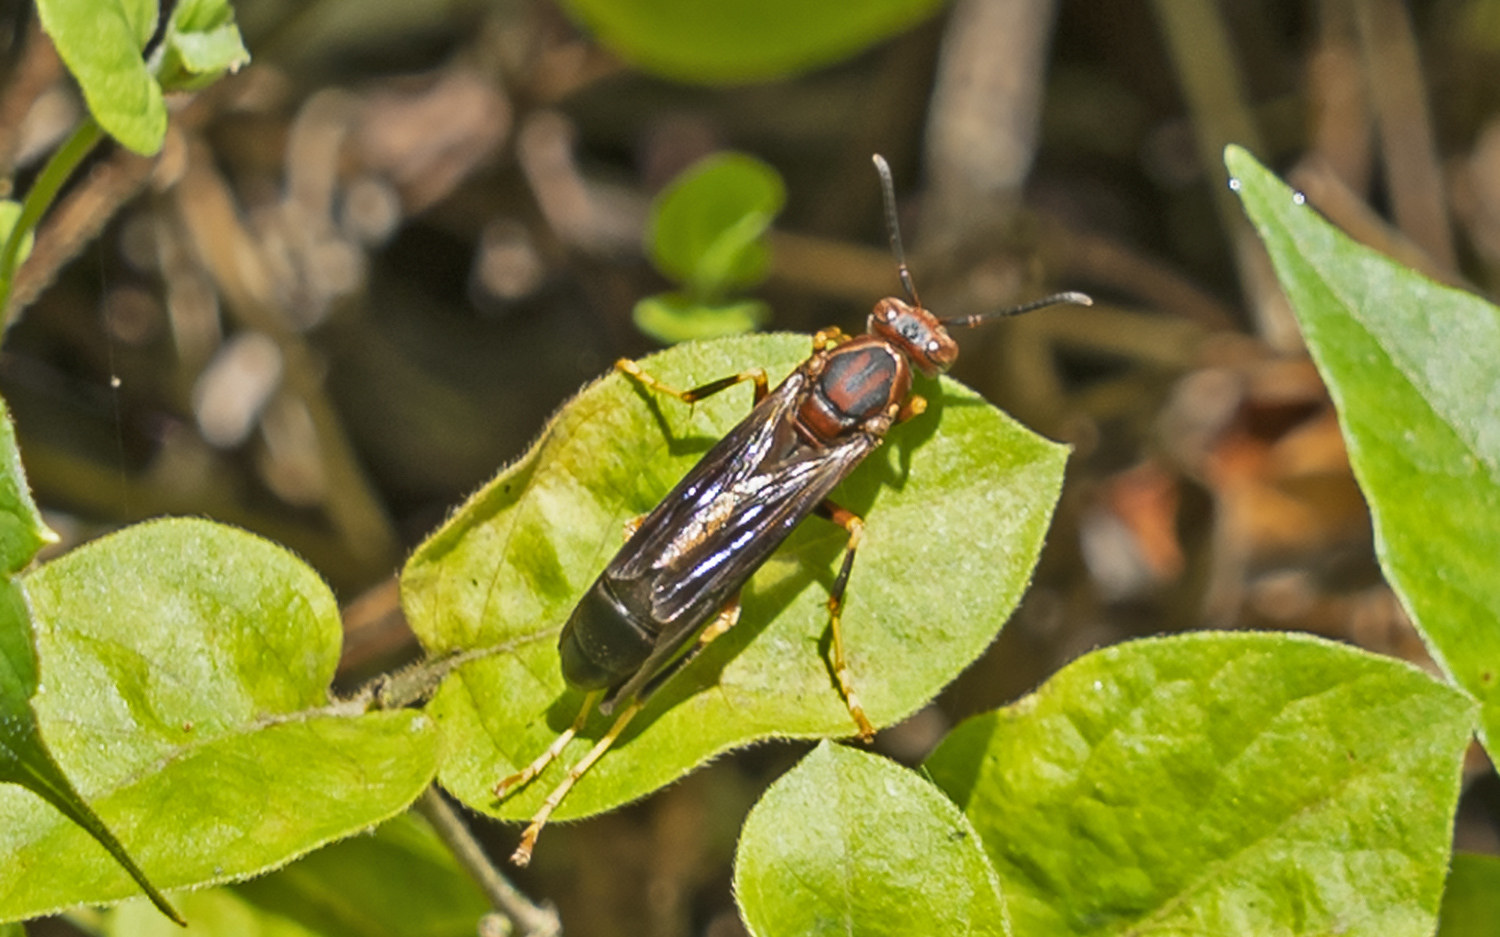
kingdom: Animalia
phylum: Arthropoda
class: Insecta
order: Hymenoptera
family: Eumenidae
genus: Polistes
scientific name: Polistes metricus
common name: Metric paper wasp
